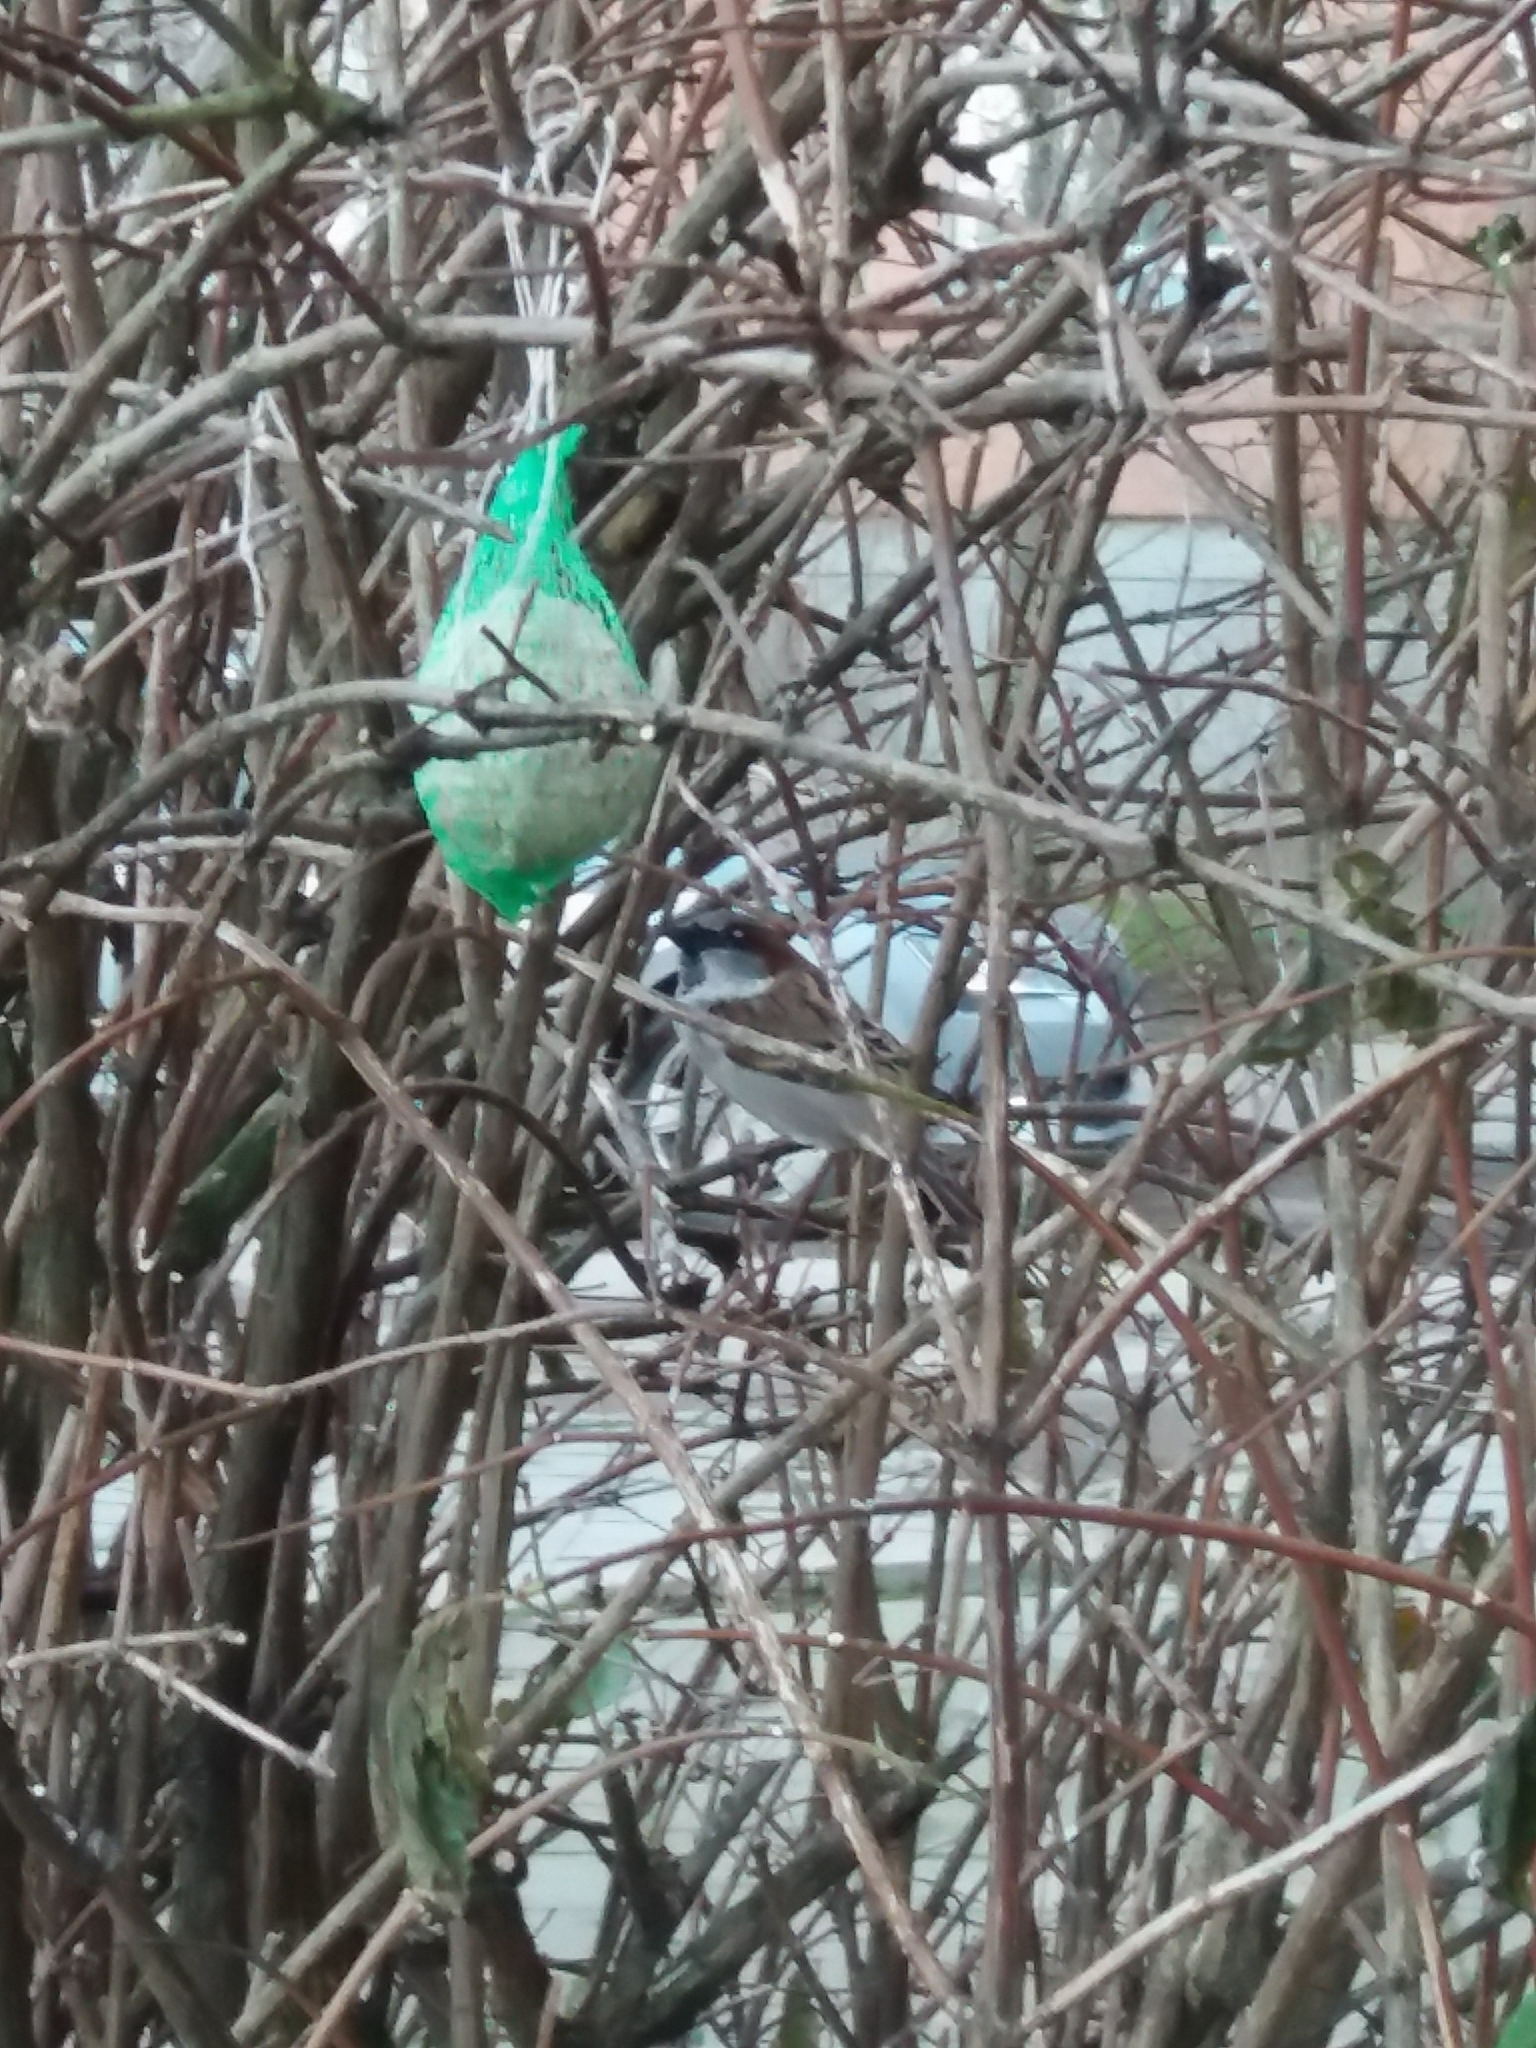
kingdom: Animalia
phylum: Chordata
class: Aves
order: Passeriformes
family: Passeridae
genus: Passer
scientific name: Passer domesticus
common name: House sparrow
